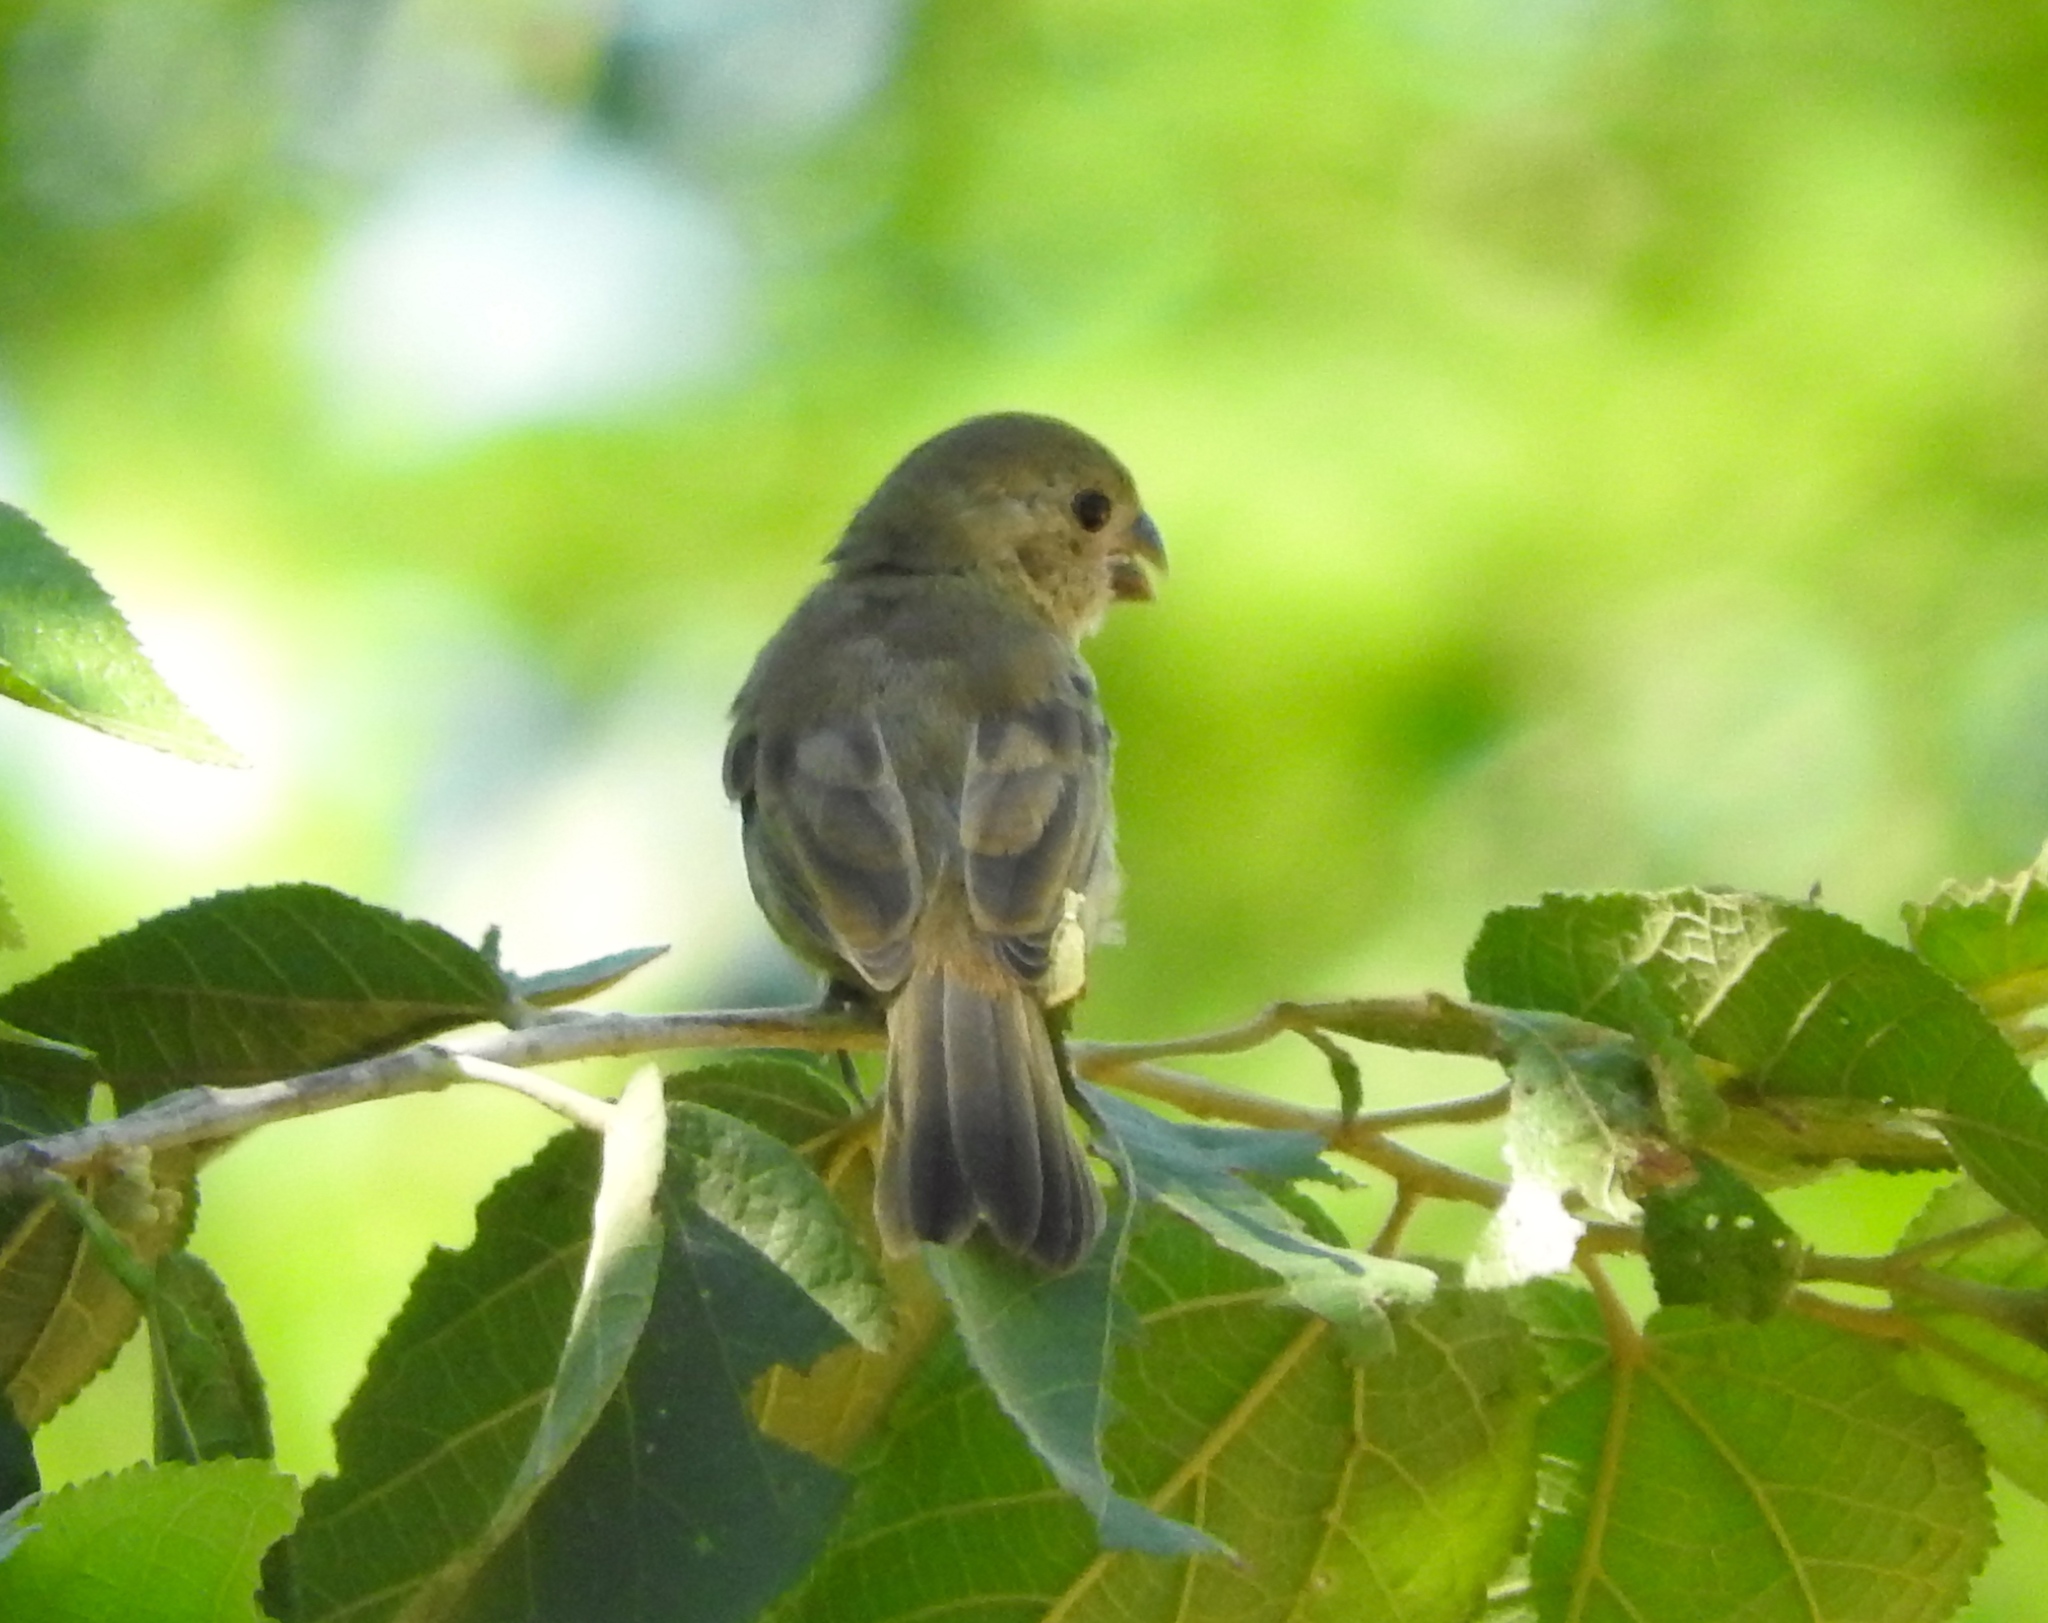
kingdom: Animalia
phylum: Chordata
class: Aves
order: Passeriformes
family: Thraupidae
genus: Sporophila
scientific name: Sporophila torqueola
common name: White-collared seedeater
